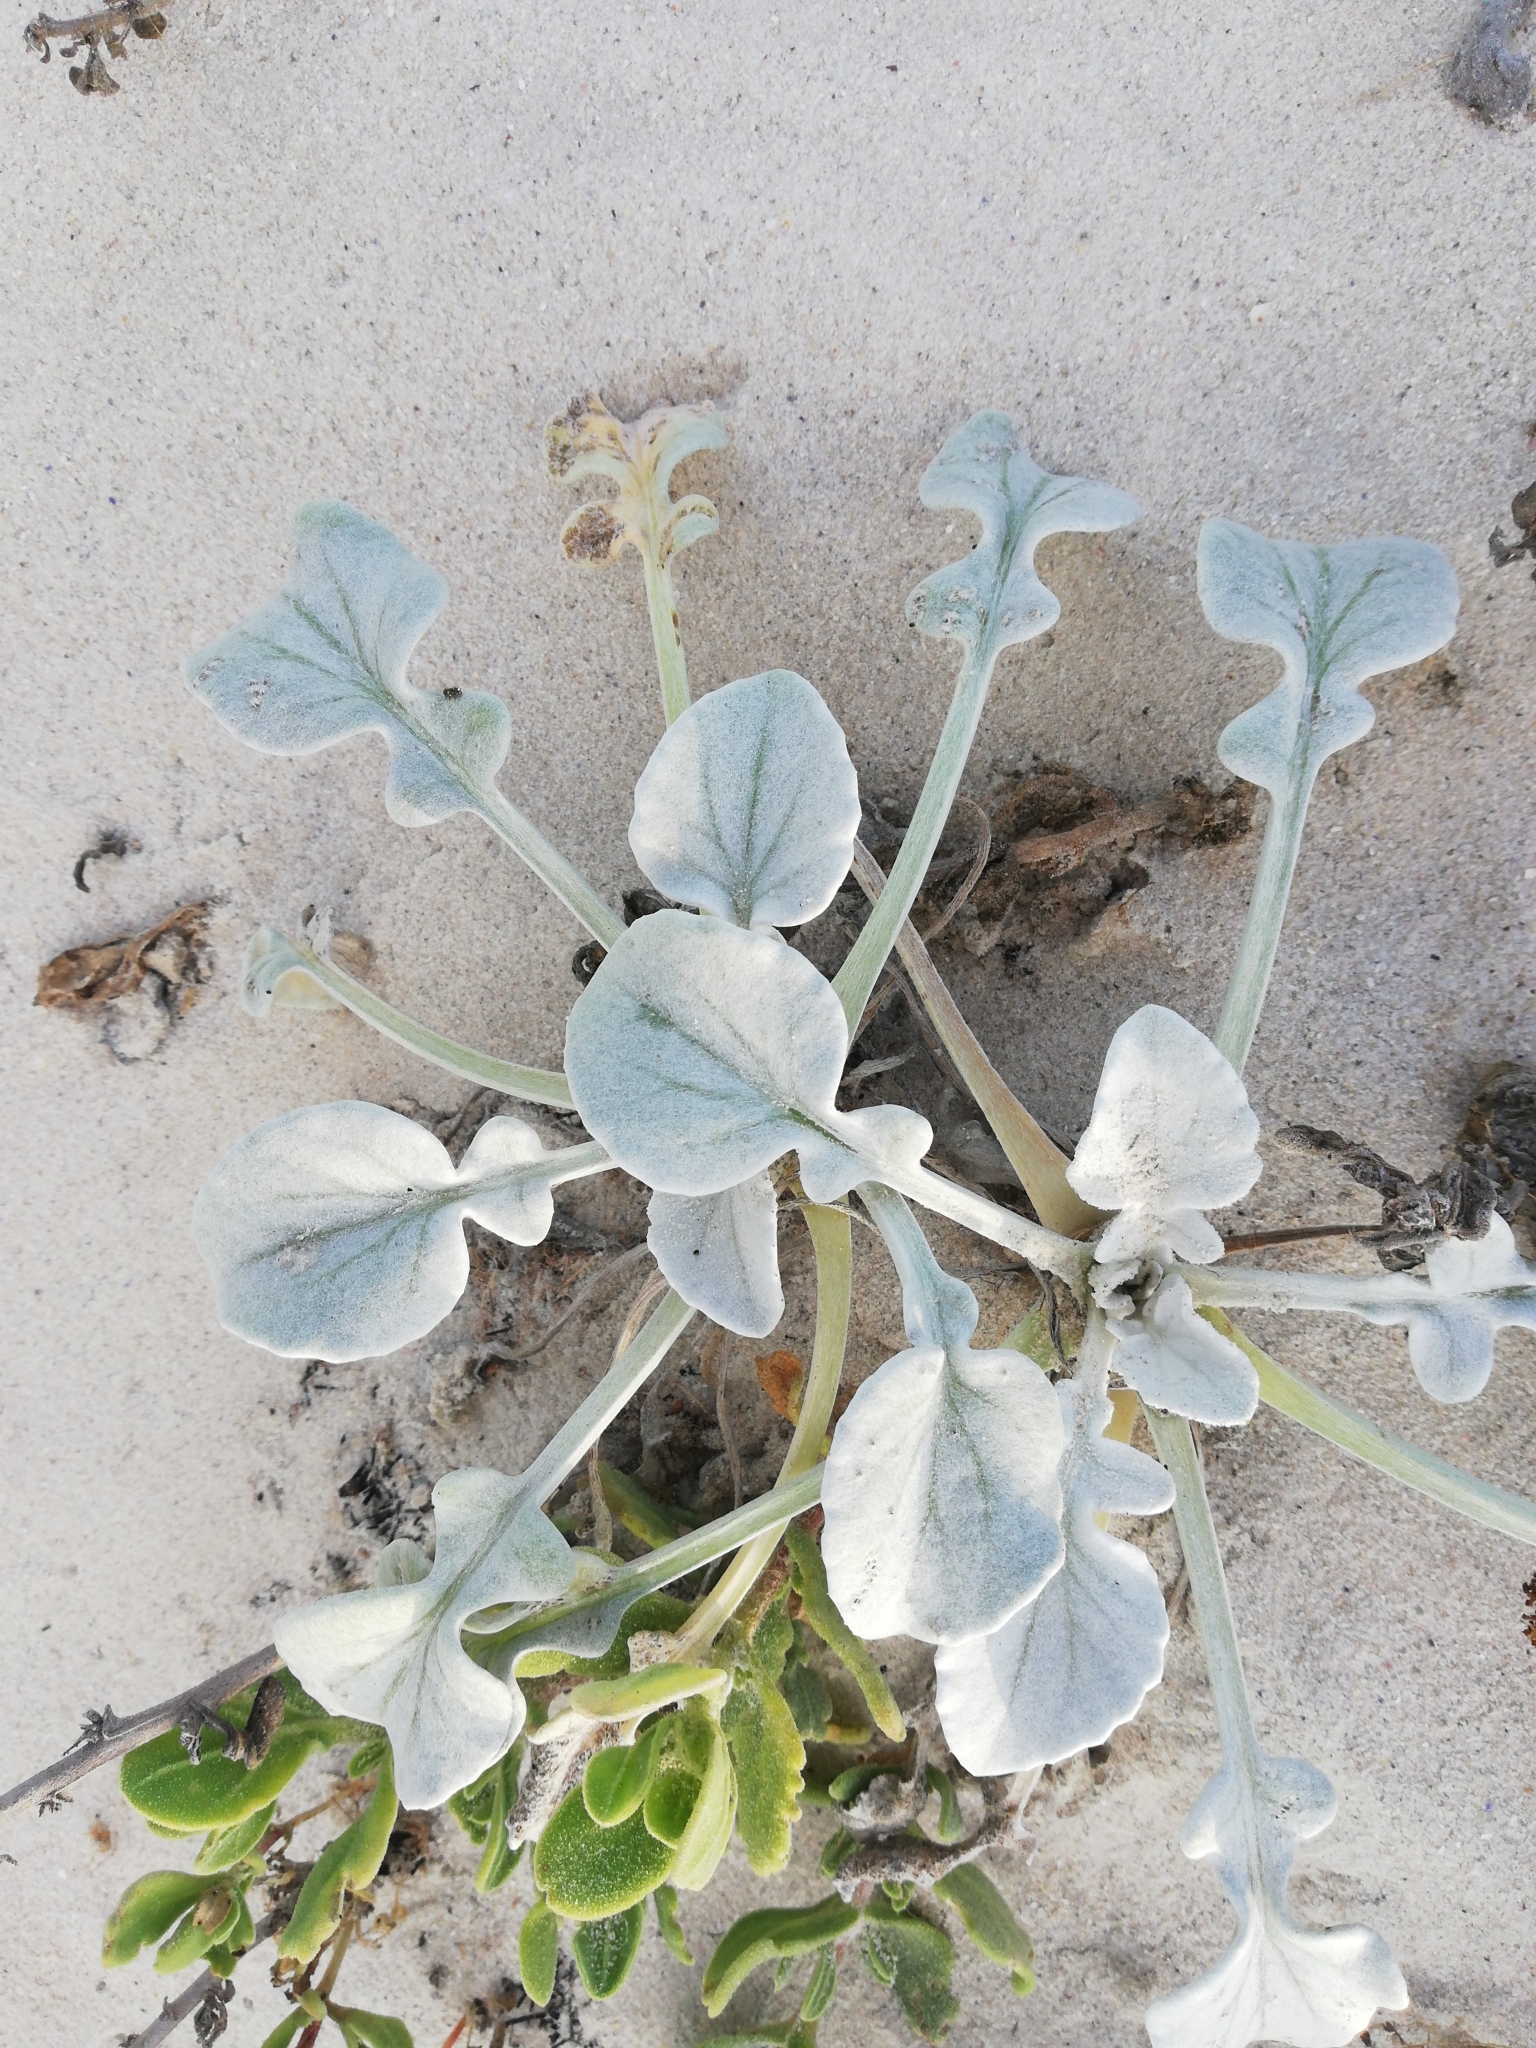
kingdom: Plantae
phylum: Tracheophyta
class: Magnoliopsida
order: Asterales
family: Asteraceae
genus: Arctotheca
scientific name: Arctotheca populifolia
